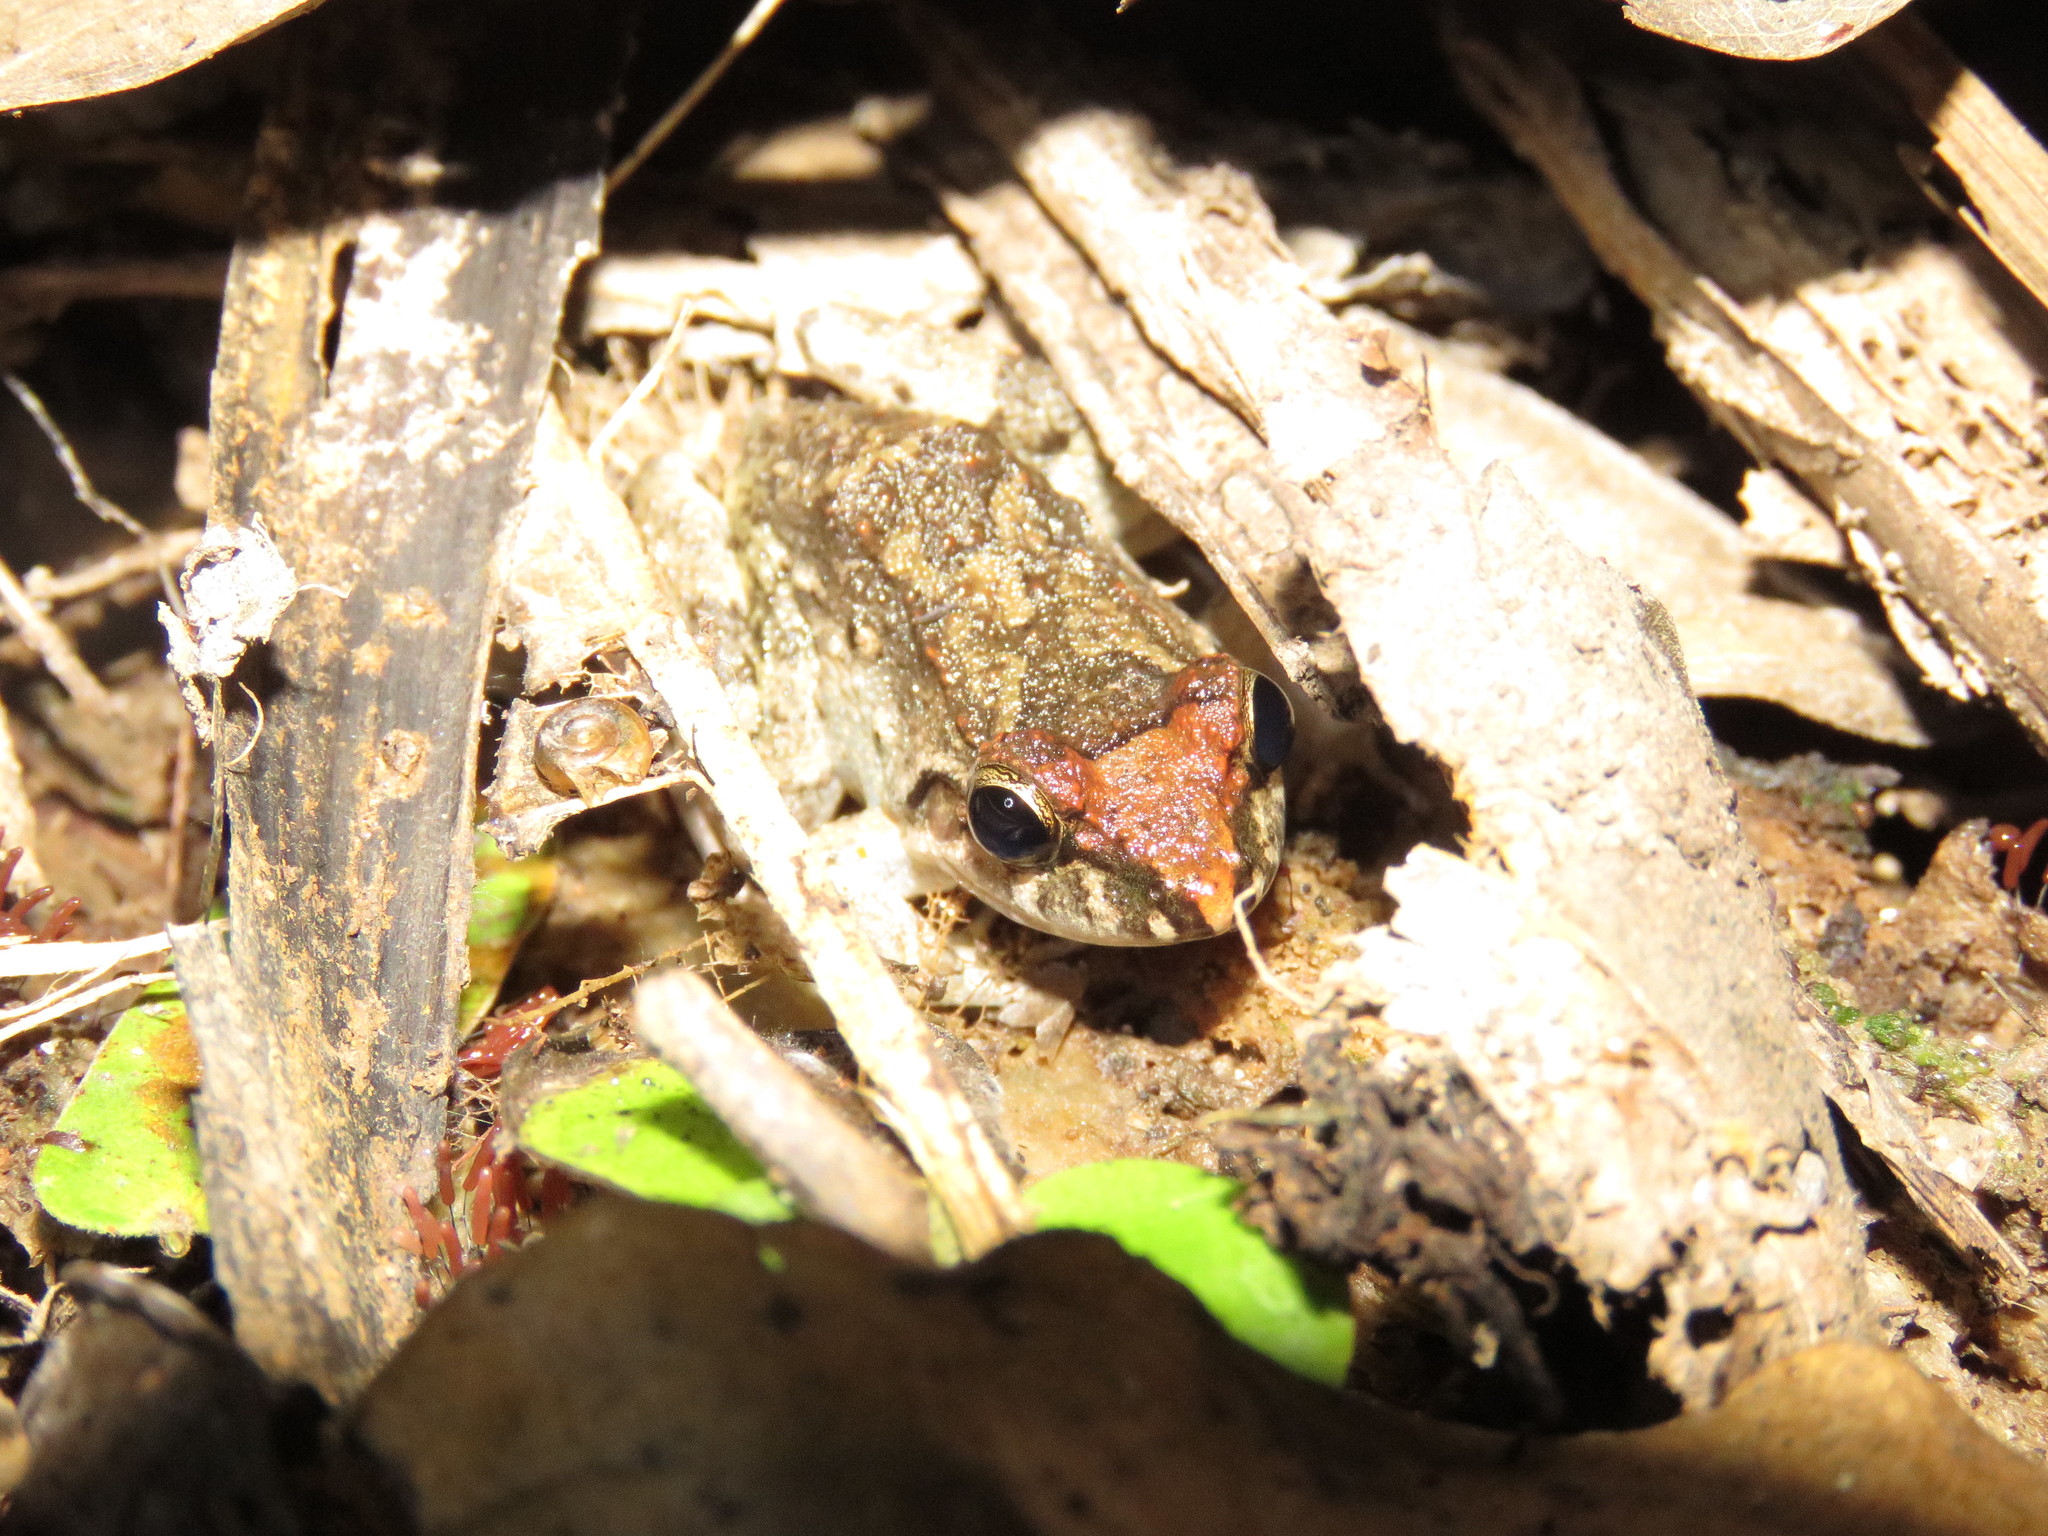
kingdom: Animalia
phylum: Chordata
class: Amphibia
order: Anura
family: Leptodactylidae
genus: Leptodactylus
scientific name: Leptodactylus petersii
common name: Peters' thin-toed frog
